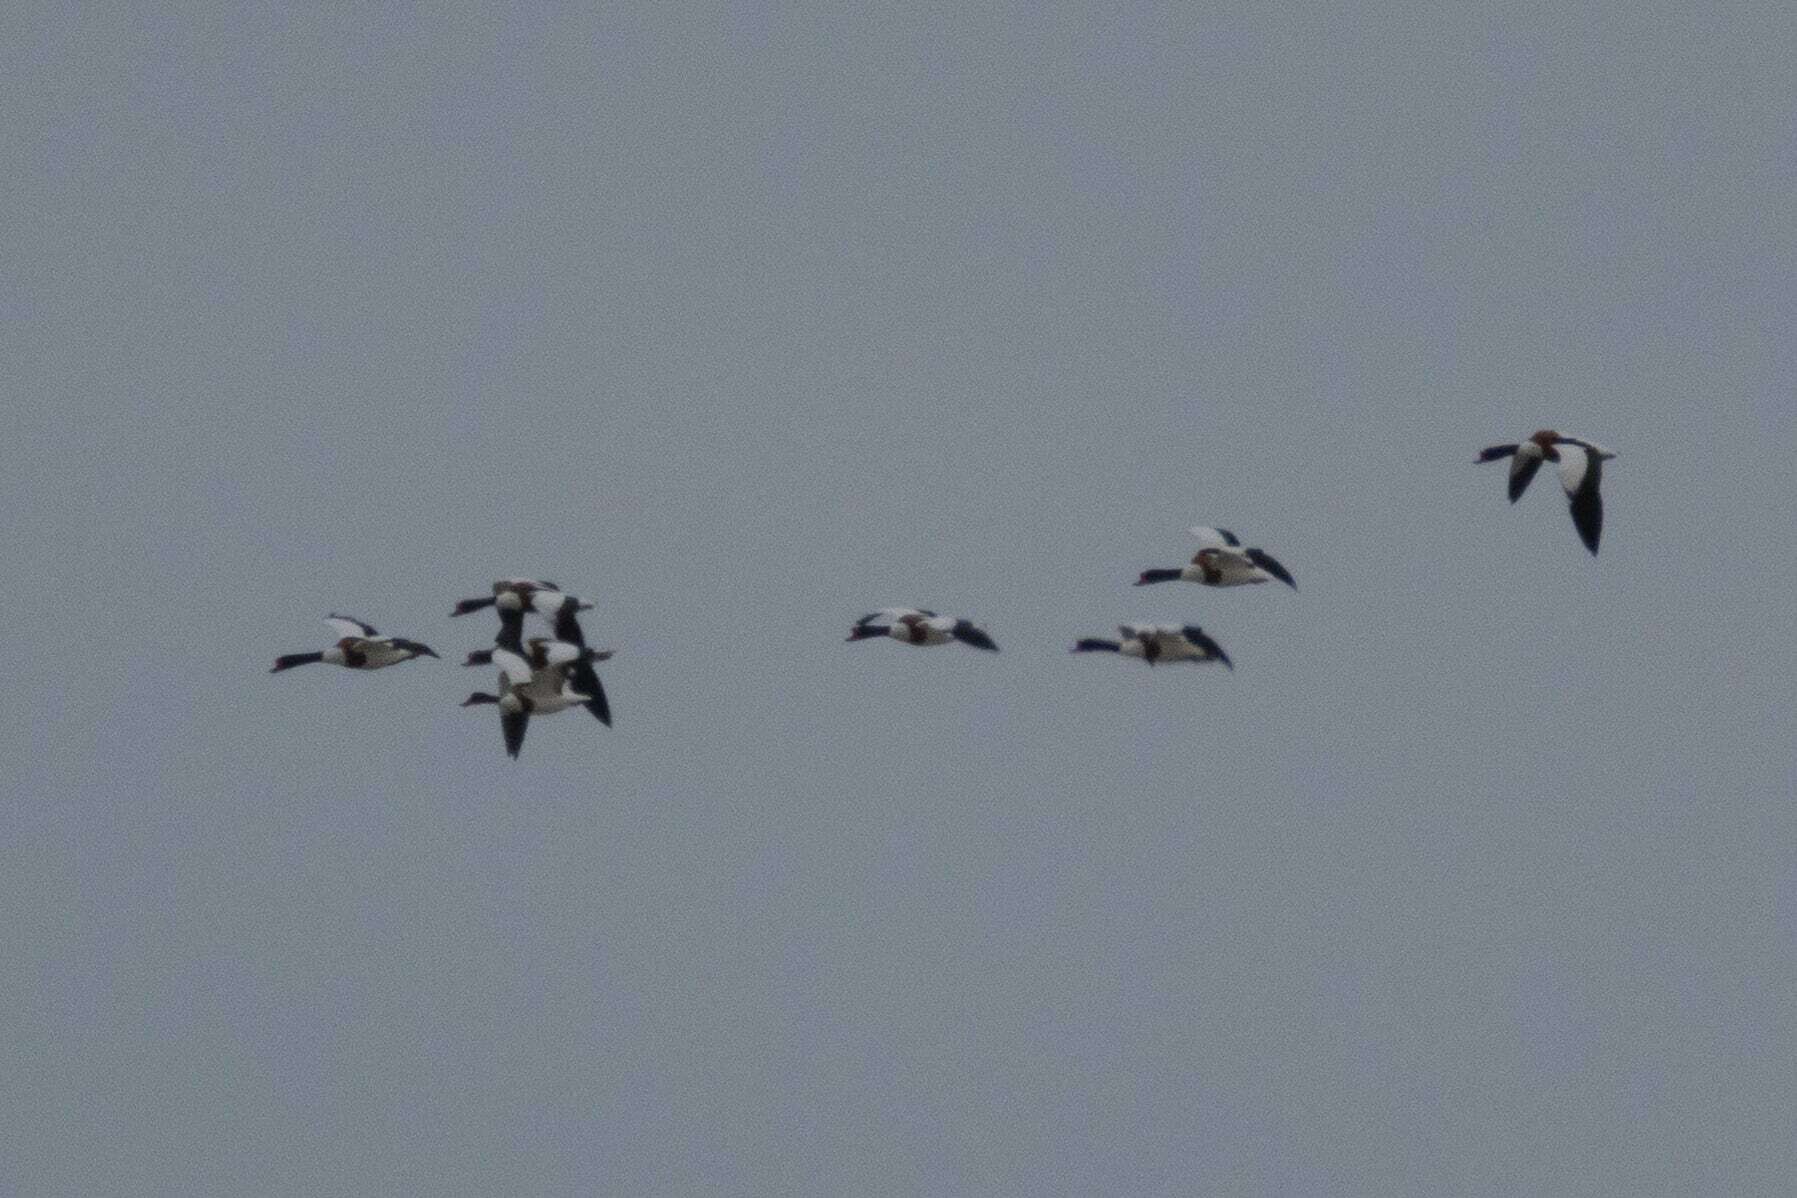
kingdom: Animalia
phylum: Chordata
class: Aves
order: Anseriformes
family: Anatidae
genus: Tadorna
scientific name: Tadorna tadorna
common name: Common shelduck
